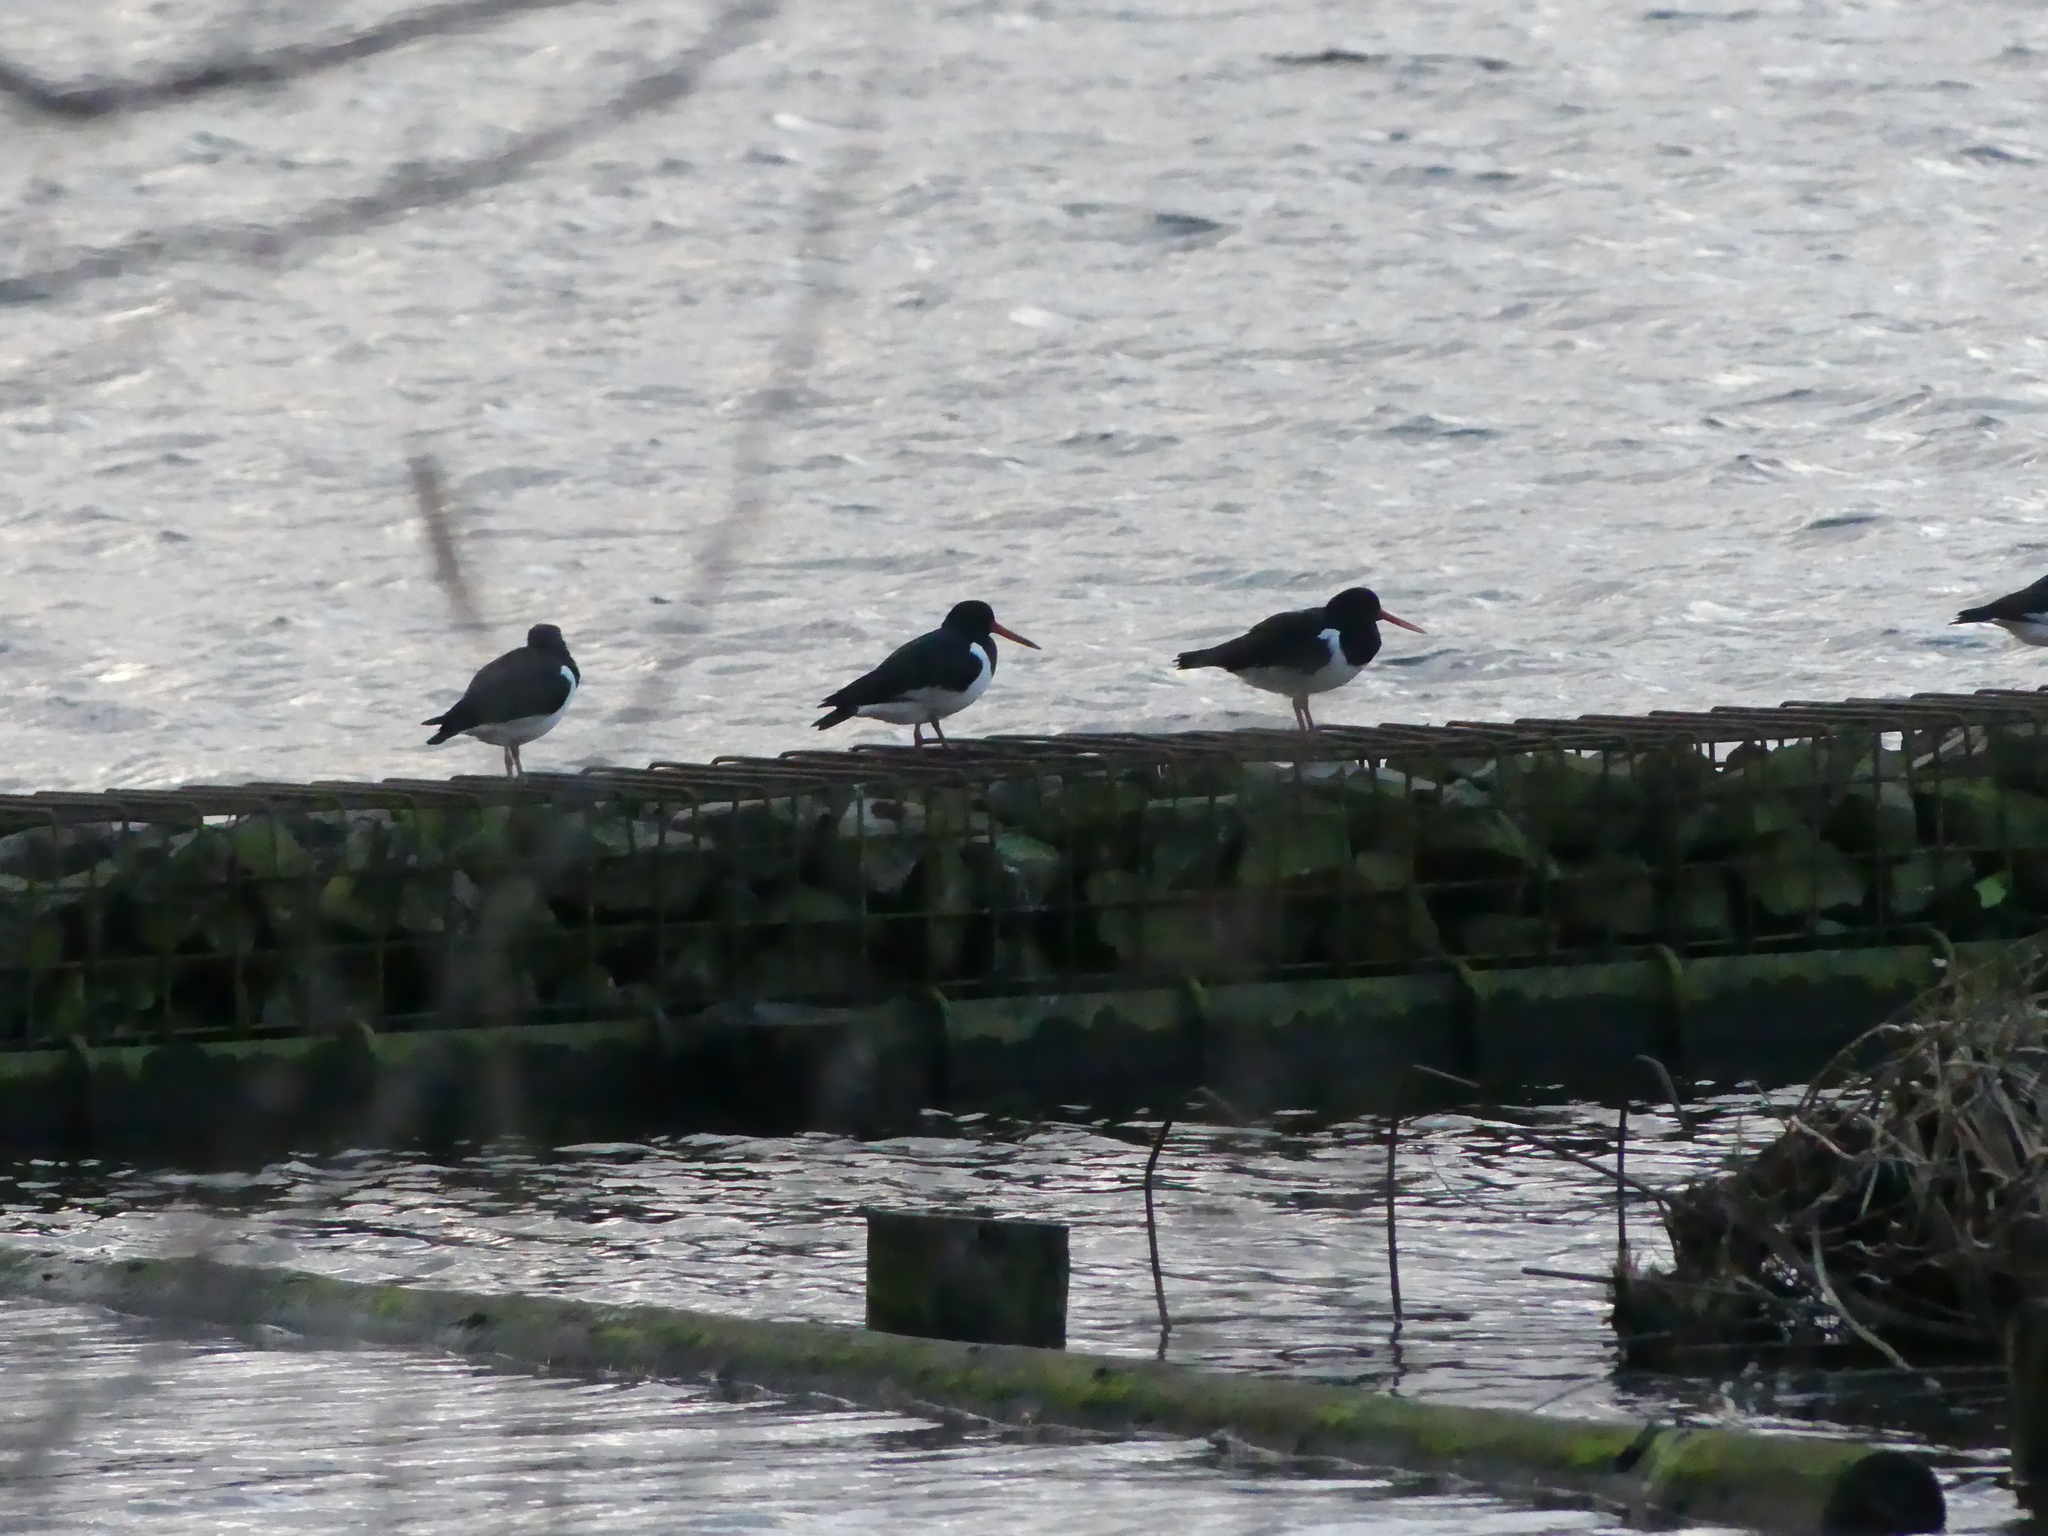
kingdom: Animalia
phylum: Chordata
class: Aves
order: Charadriiformes
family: Haematopodidae
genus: Haematopus
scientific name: Haematopus ostralegus
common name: Eurasian oystercatcher
